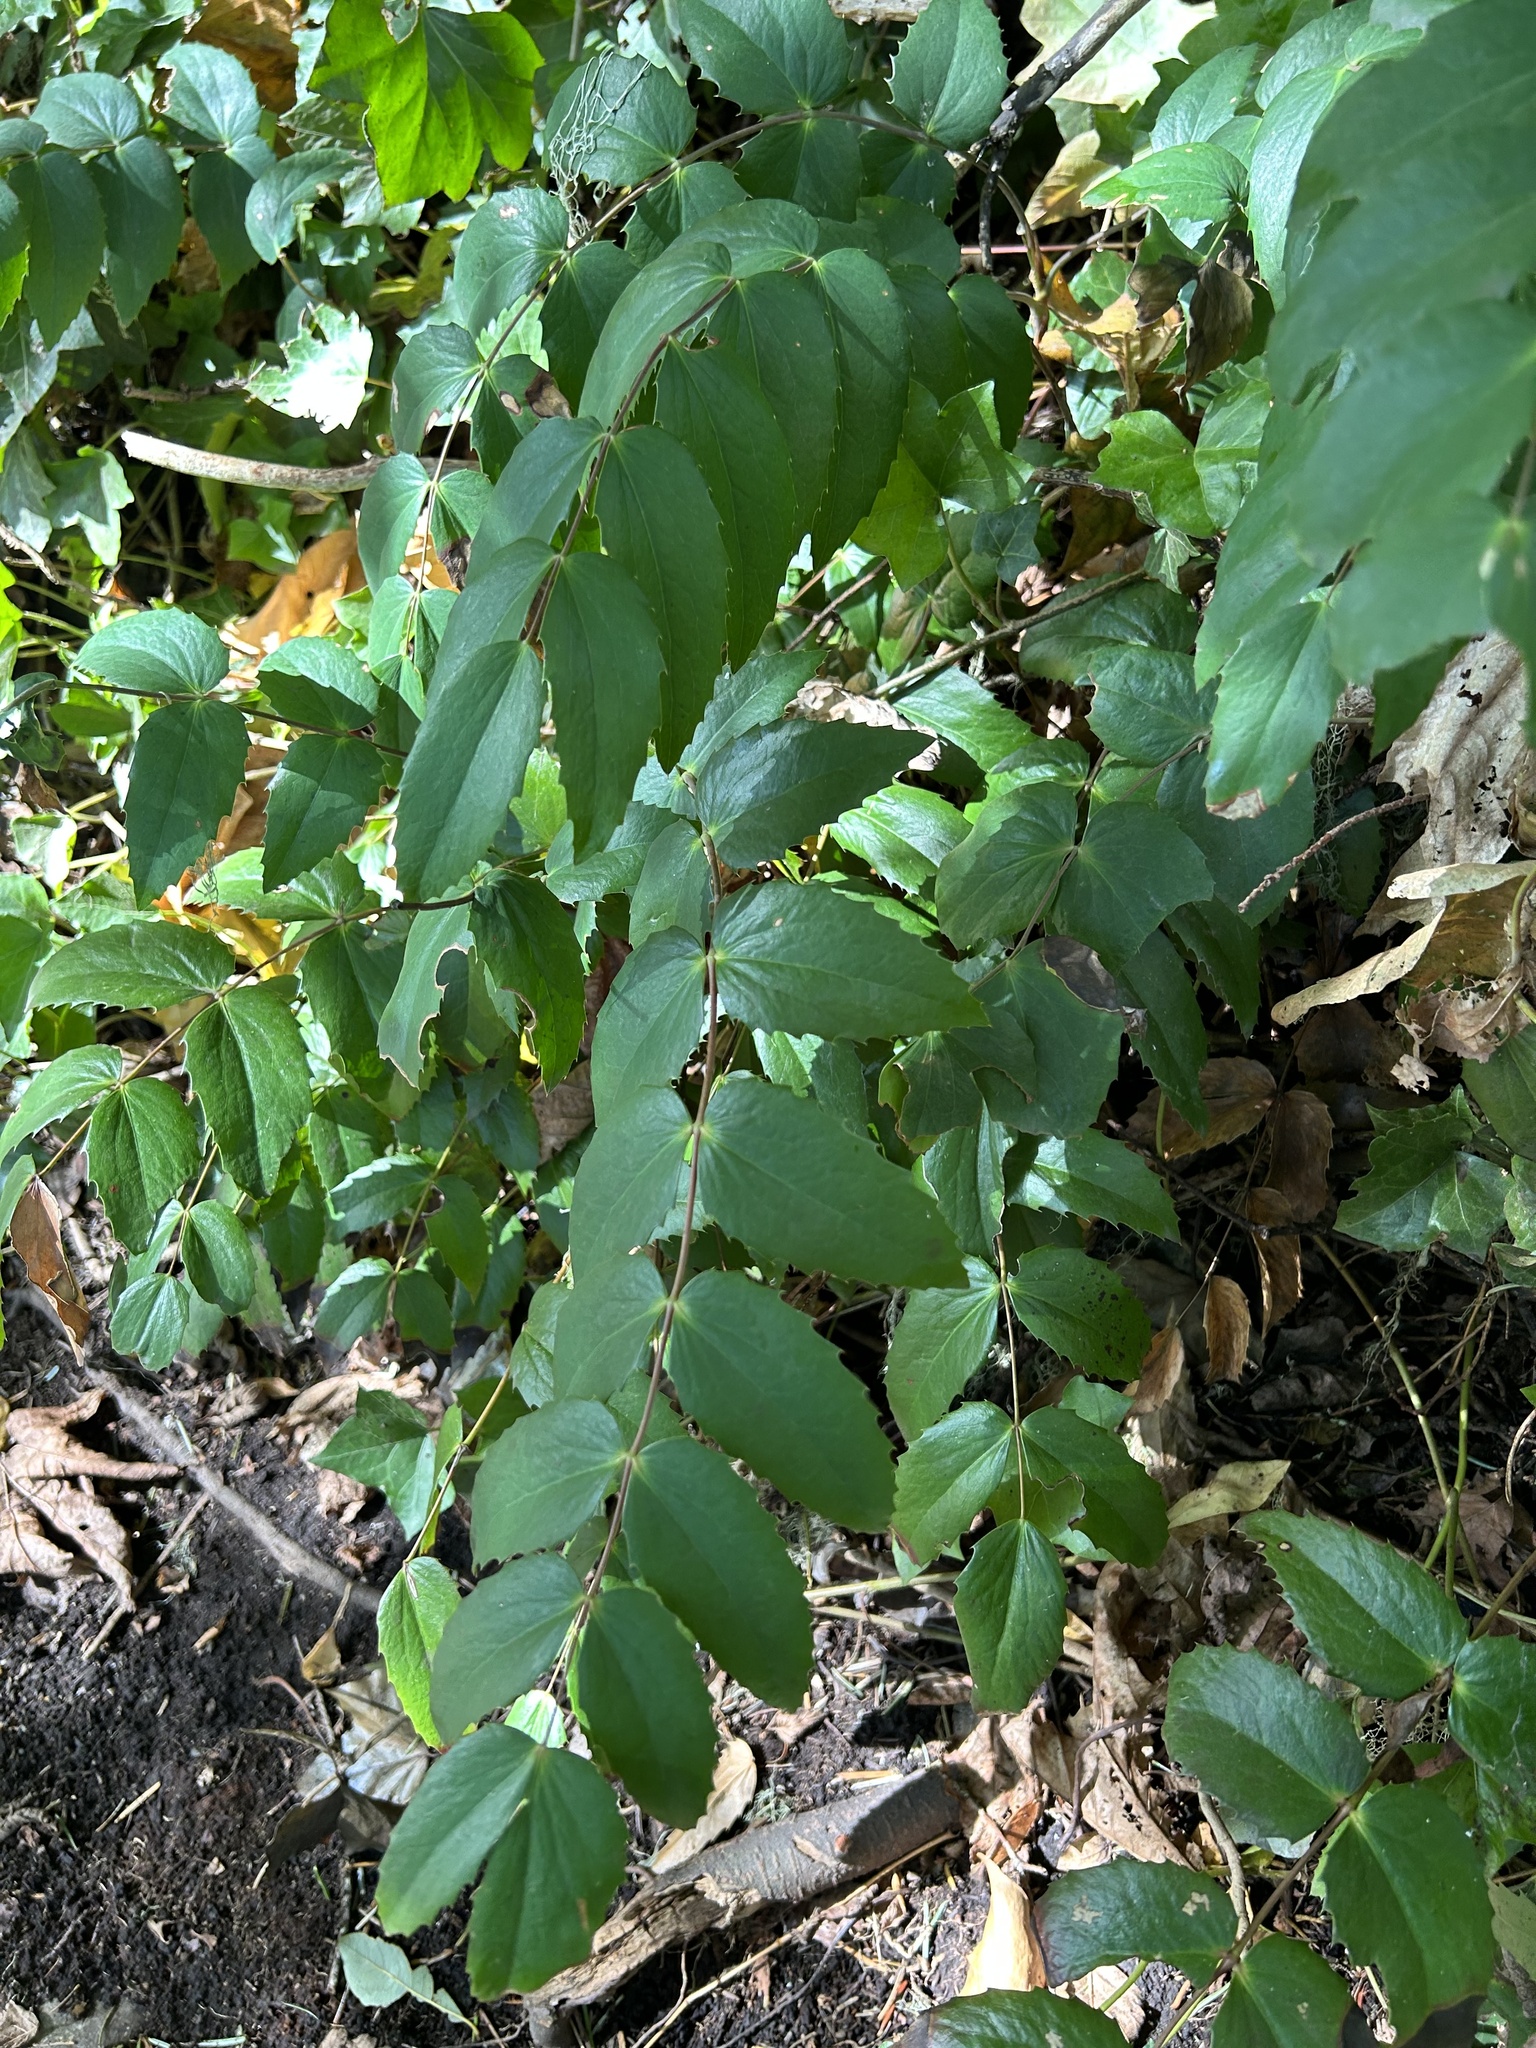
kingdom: Plantae
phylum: Tracheophyta
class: Magnoliopsida
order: Ranunculales
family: Berberidaceae
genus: Mahonia
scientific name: Mahonia nervosa
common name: Cascade oregon-grape
